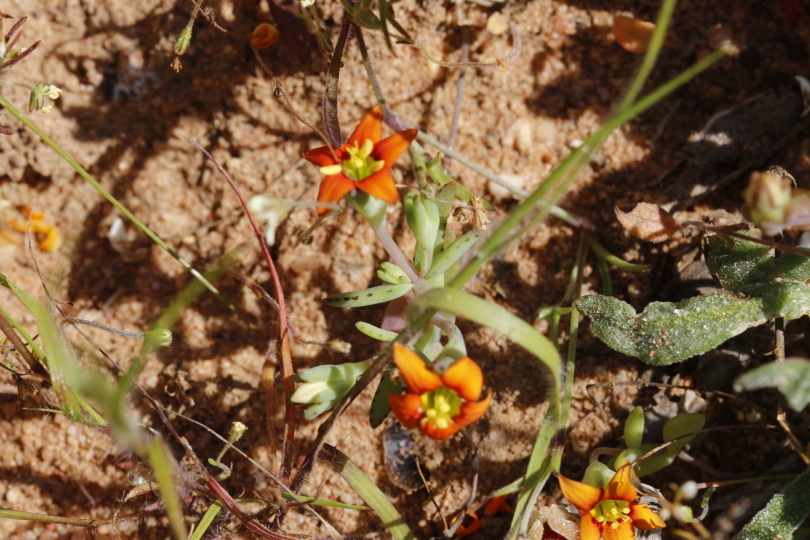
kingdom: Plantae
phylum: Tracheophyta
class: Magnoliopsida
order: Saxifragales
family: Crassulaceae
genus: Crassula
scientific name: Crassula dichotoma
